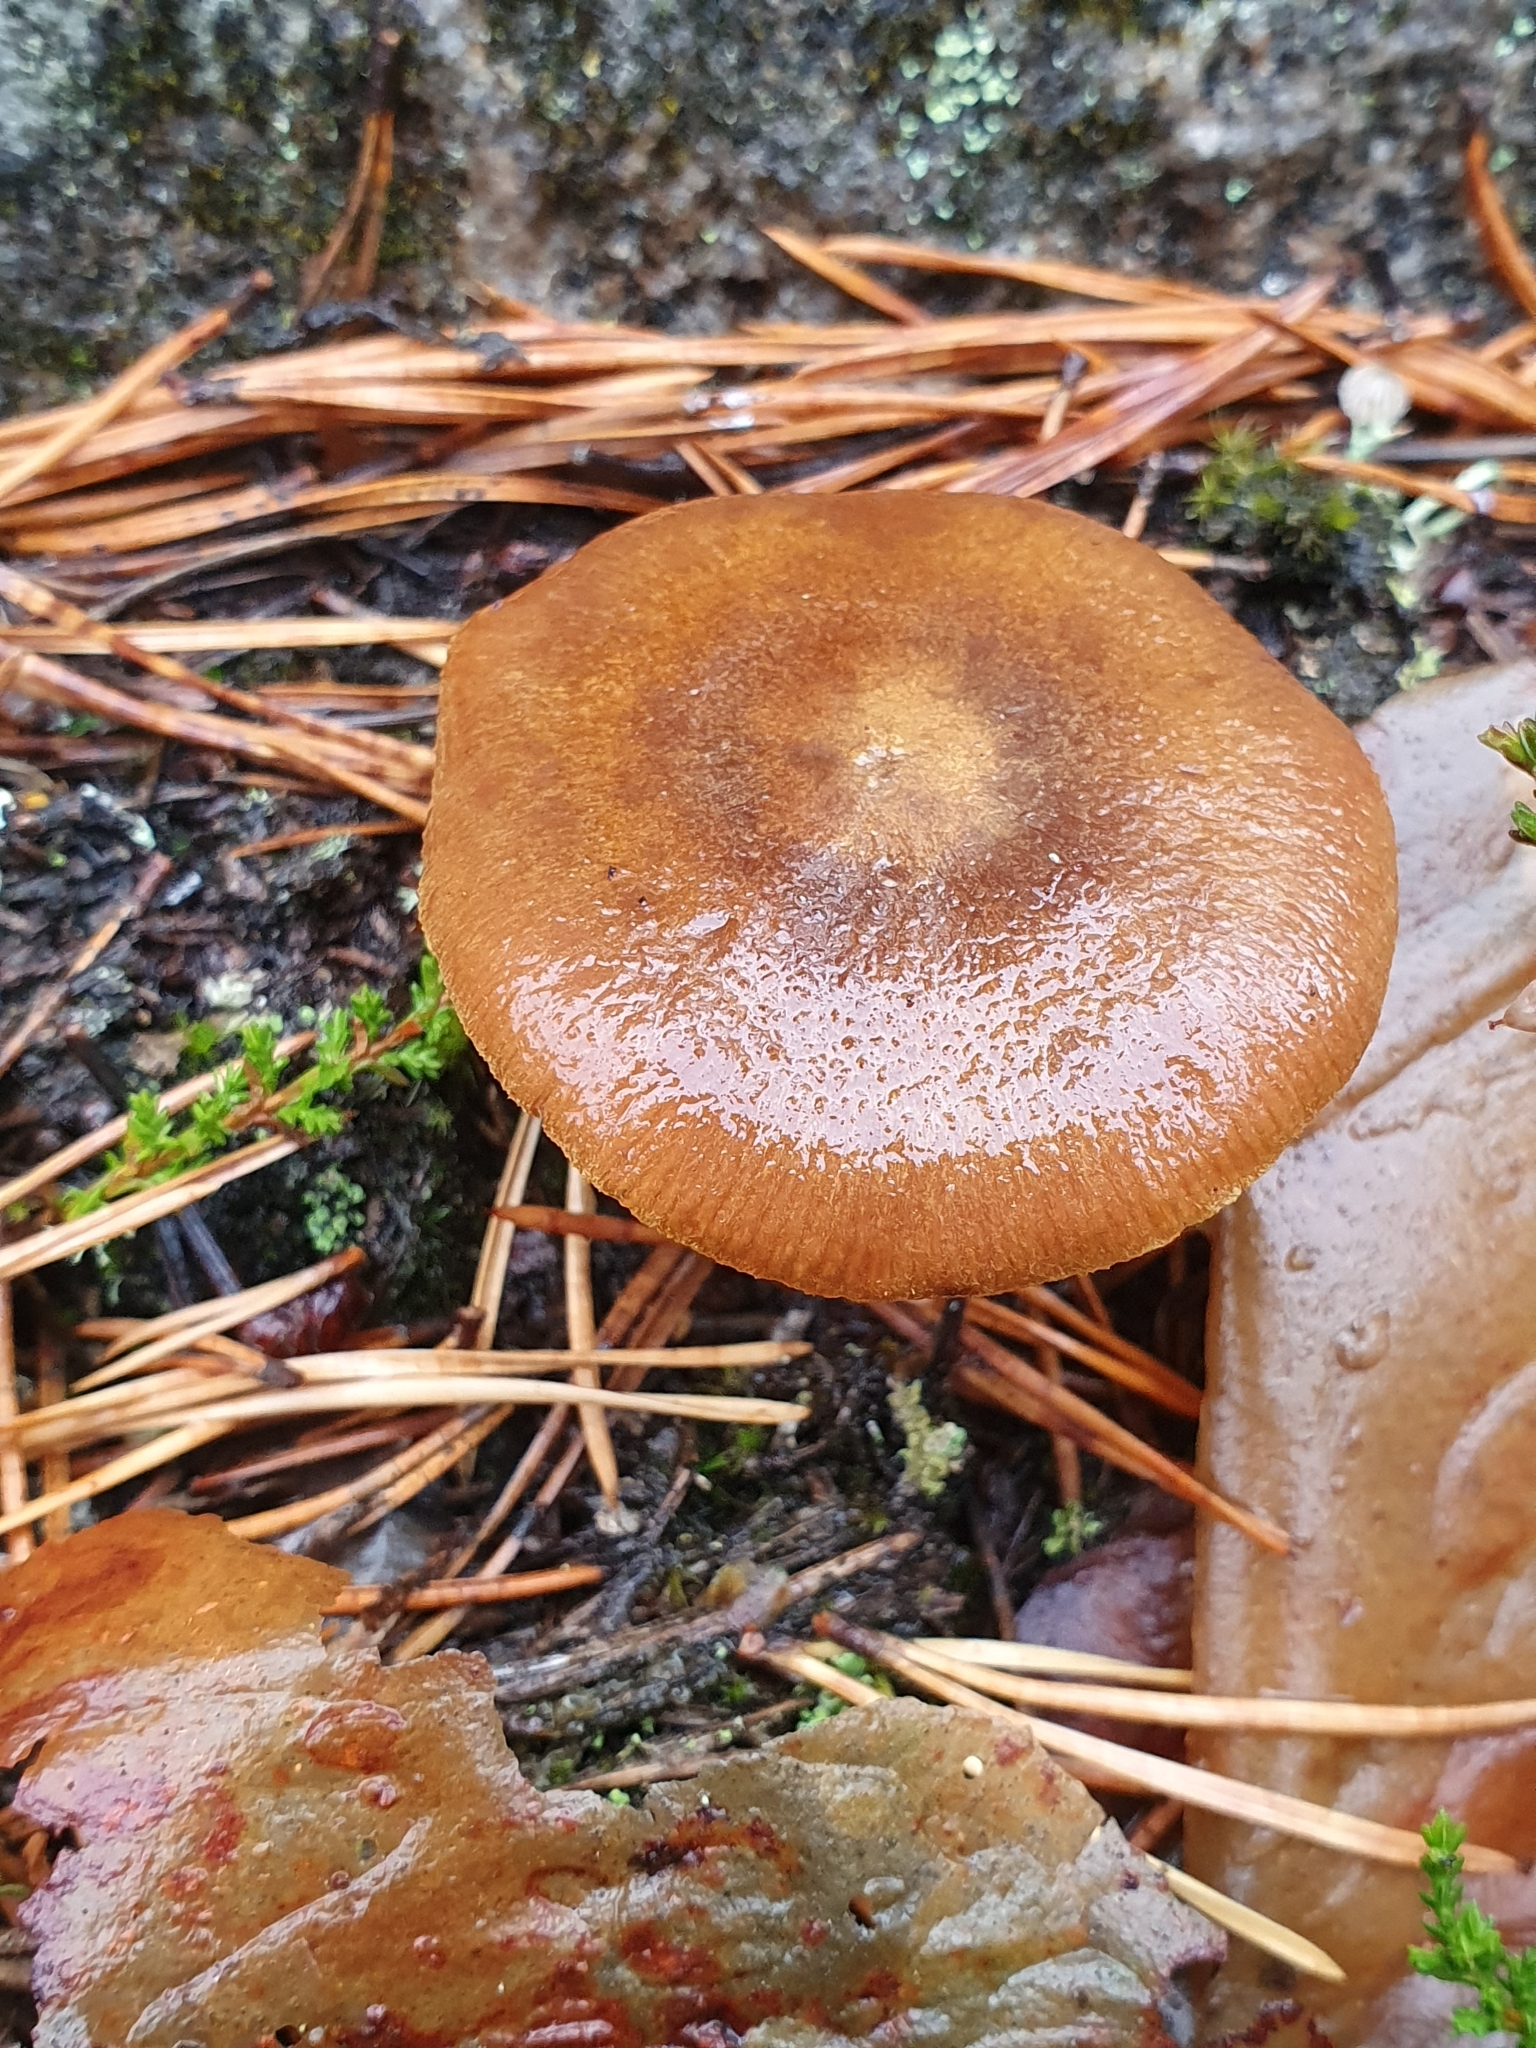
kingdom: Fungi
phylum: Basidiomycota
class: Agaricomycetes
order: Agaricales
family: Cortinariaceae
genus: Cortinarius
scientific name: Cortinarius semisanguineus
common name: Surprise webcap
